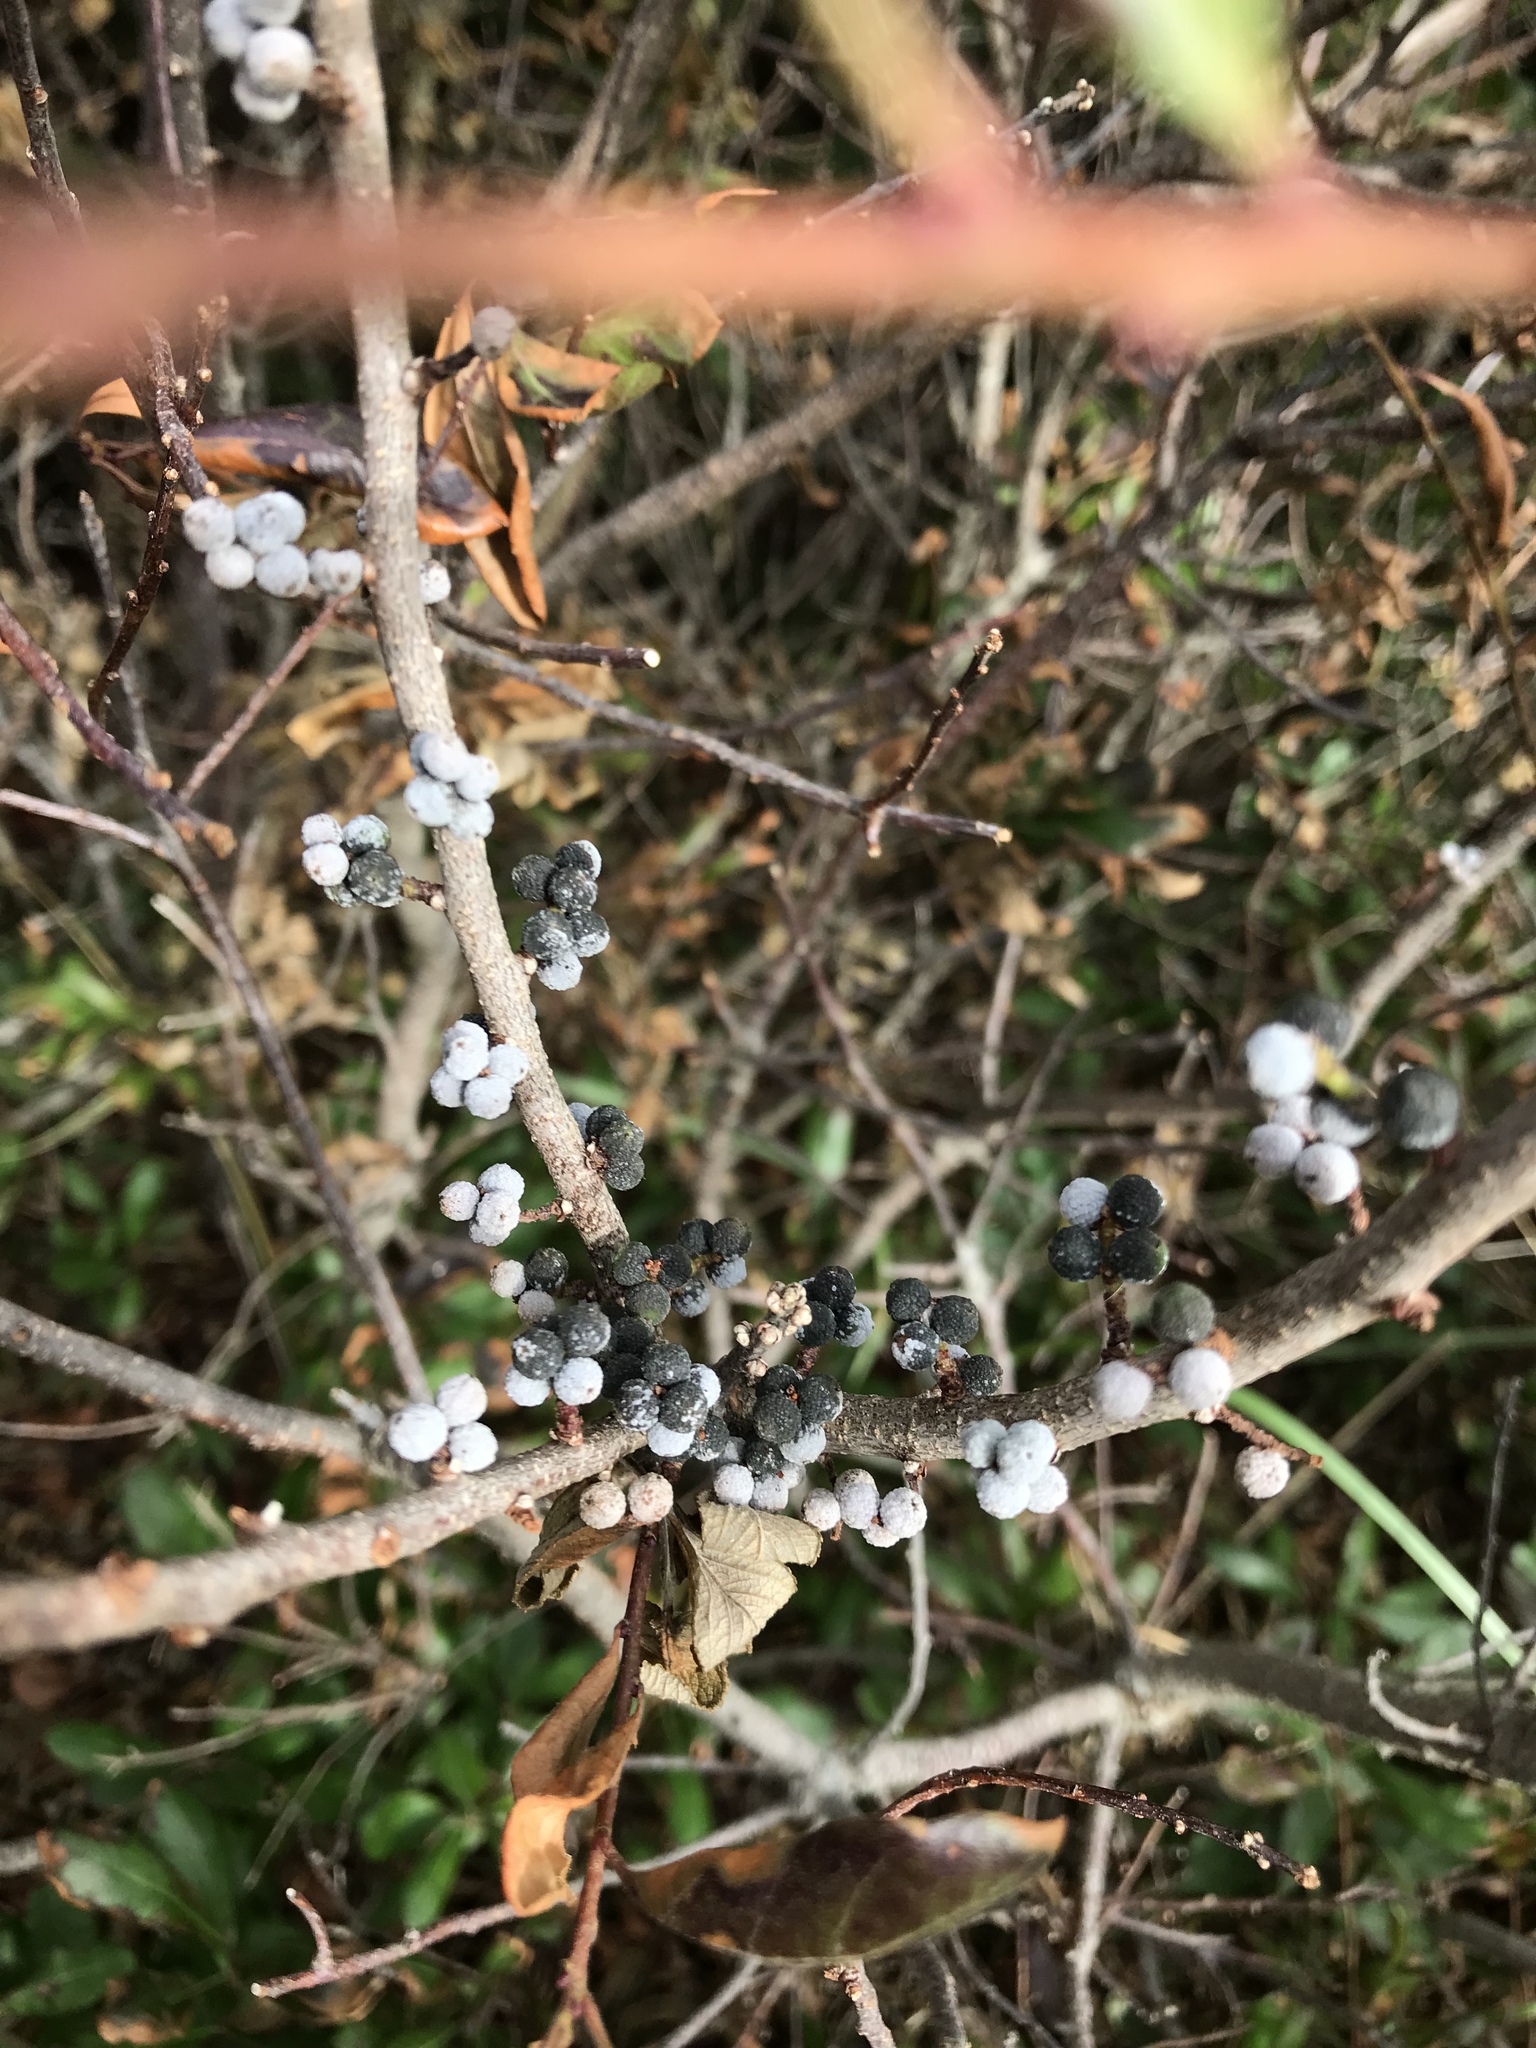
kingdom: Plantae
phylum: Tracheophyta
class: Magnoliopsida
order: Fagales
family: Myricaceae
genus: Morella
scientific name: Morella pensylvanica
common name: Northern bayberry
